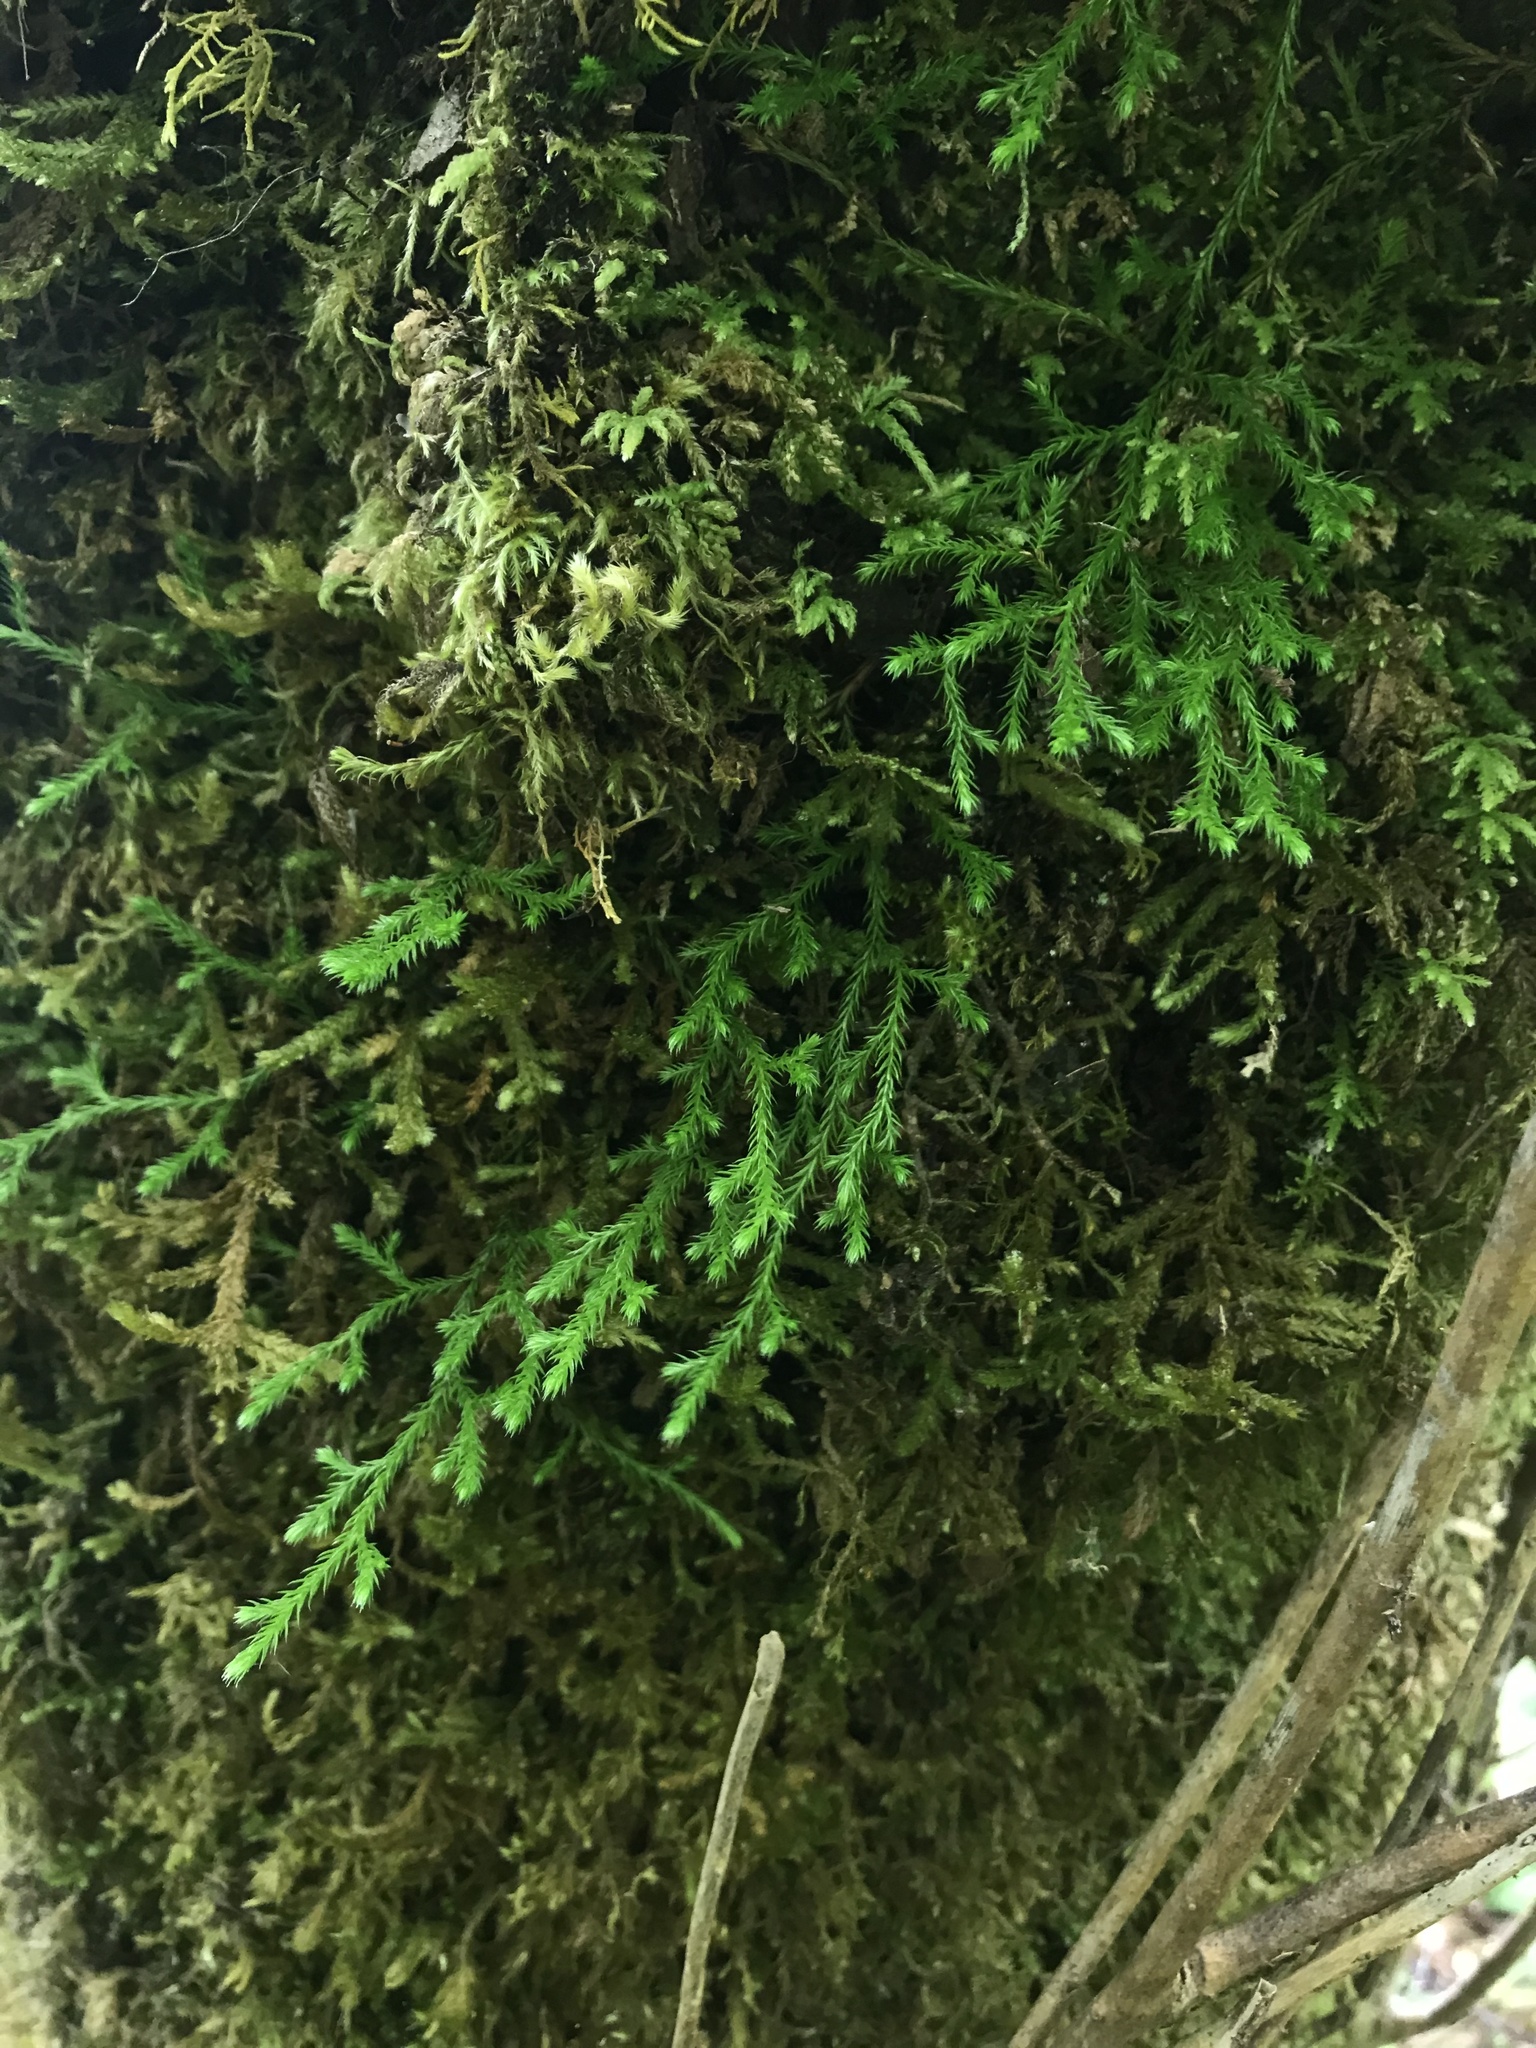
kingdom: Plantae
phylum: Tracheophyta
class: Lycopodiopsida
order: Selaginellales
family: Selaginellaceae
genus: Selaginella
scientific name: Selaginella oregana
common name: Oregon selaginella
